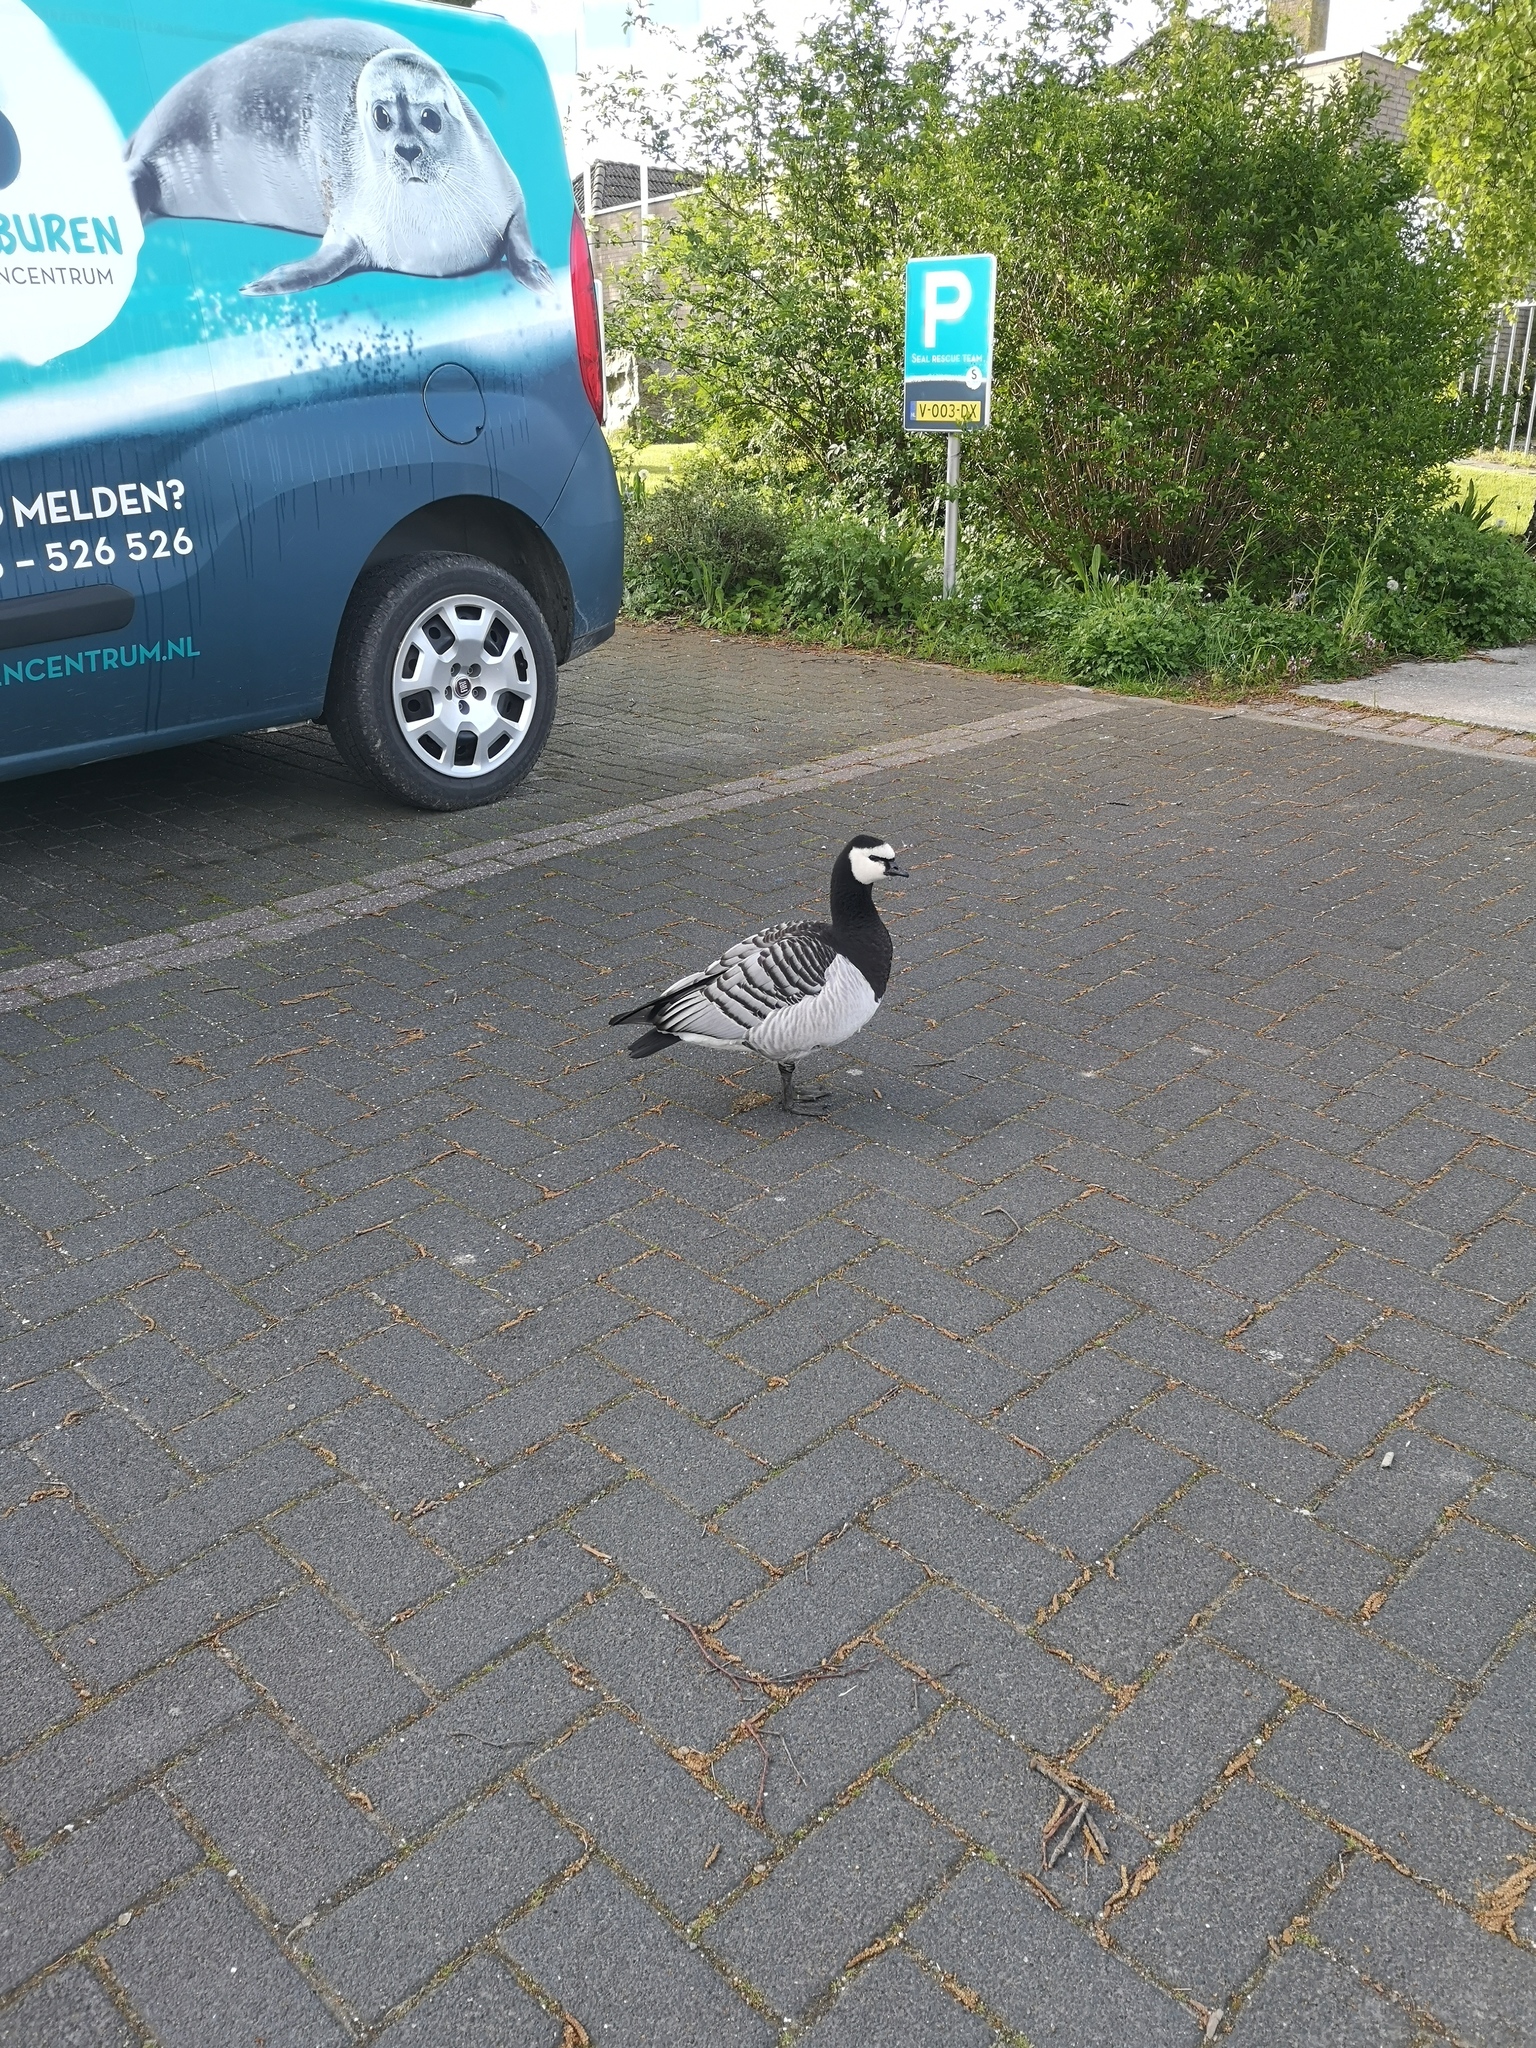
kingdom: Animalia
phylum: Chordata
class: Aves
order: Anseriformes
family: Anatidae
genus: Branta
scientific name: Branta leucopsis
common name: Barnacle goose
